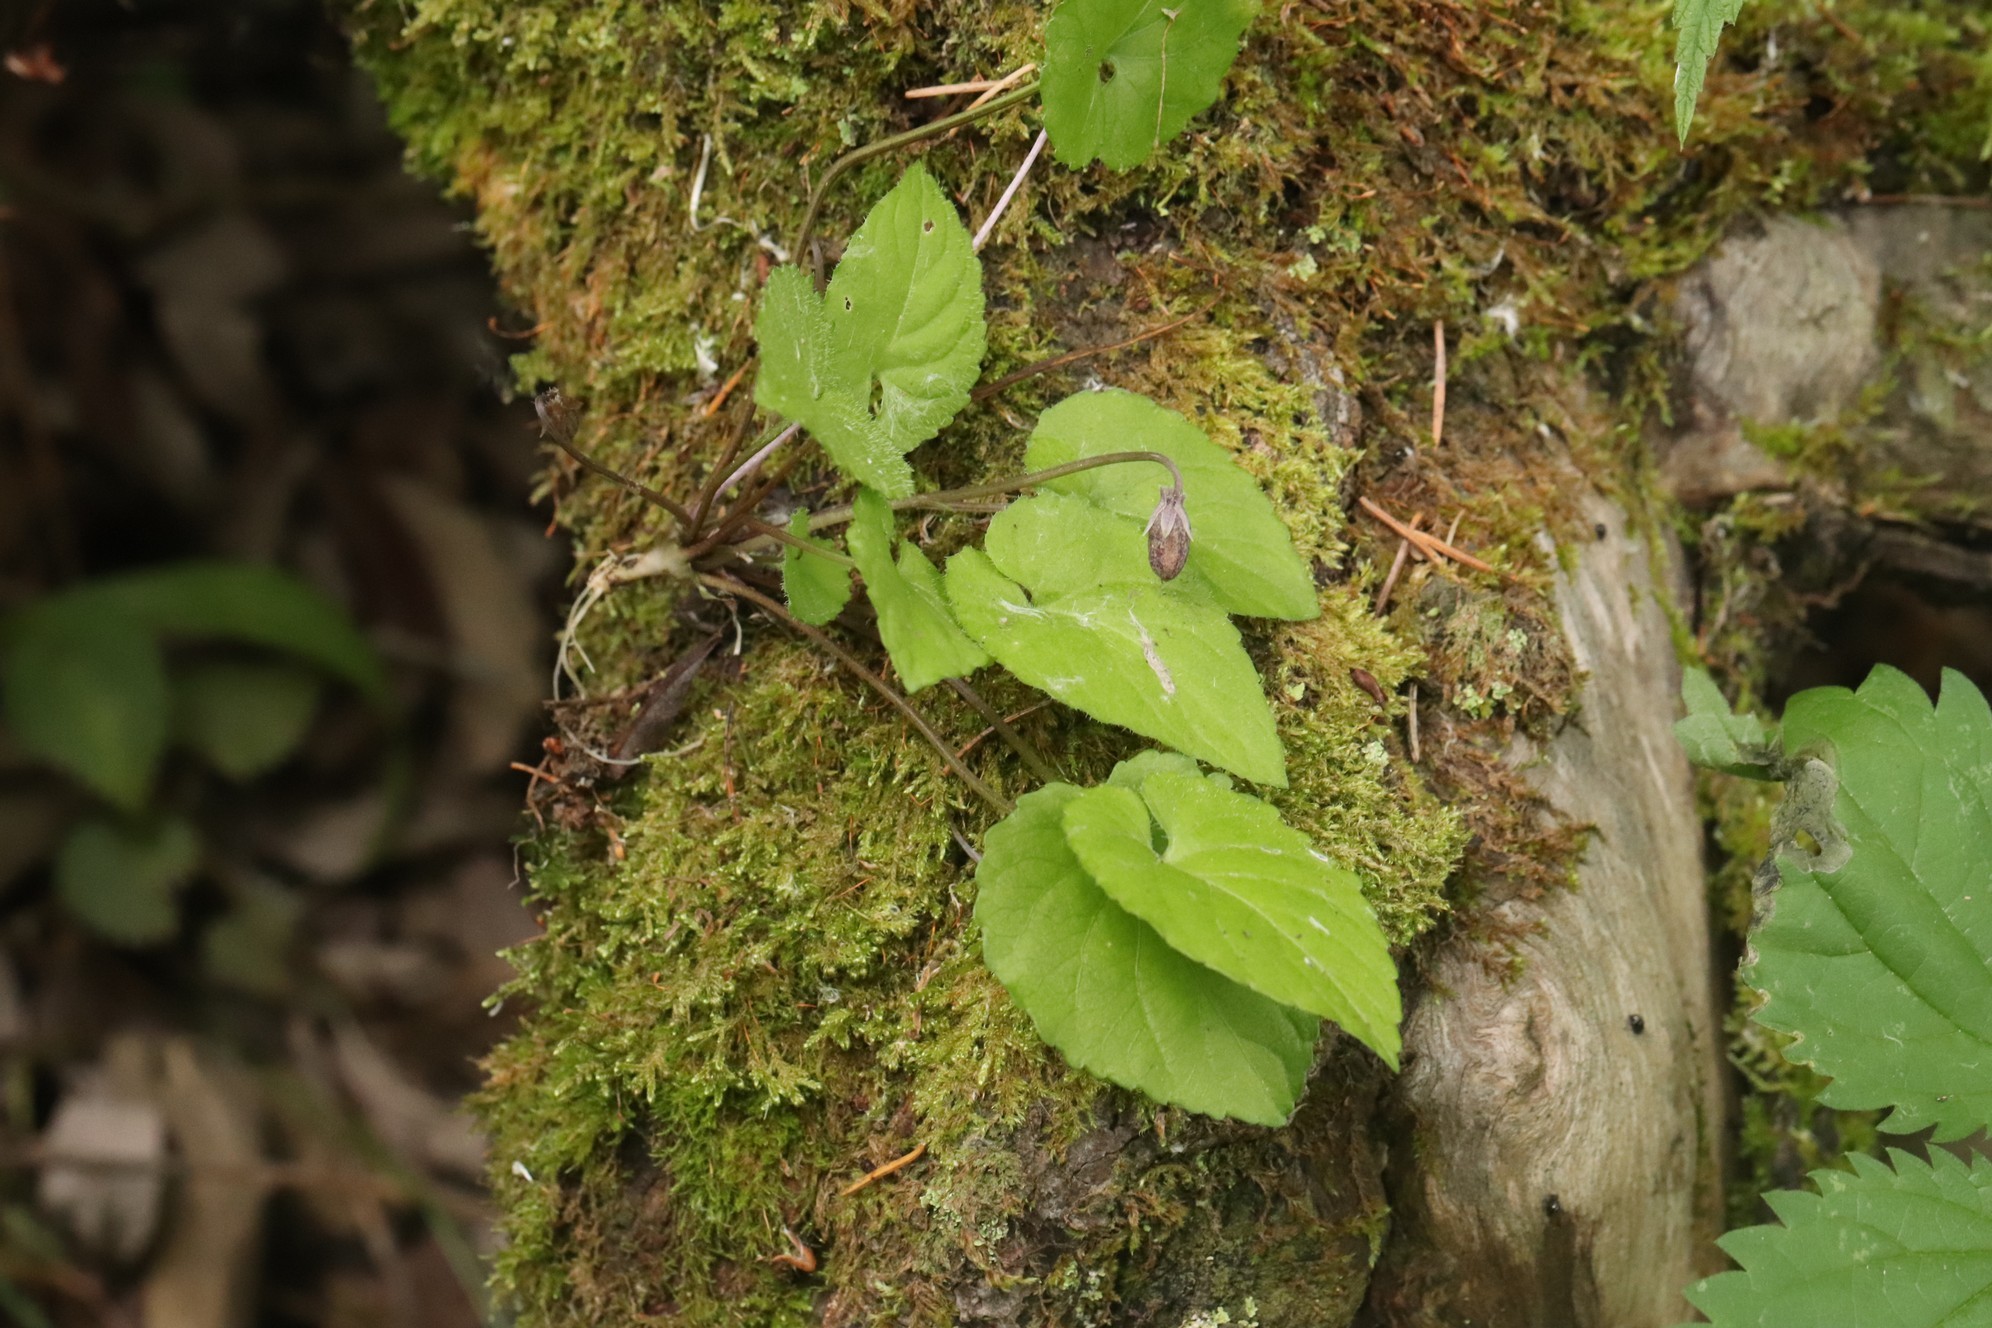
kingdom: Plantae
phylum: Tracheophyta
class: Magnoliopsida
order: Malpighiales
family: Violaceae
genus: Viola
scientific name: Viola selkirkii
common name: Selkirk's violet
